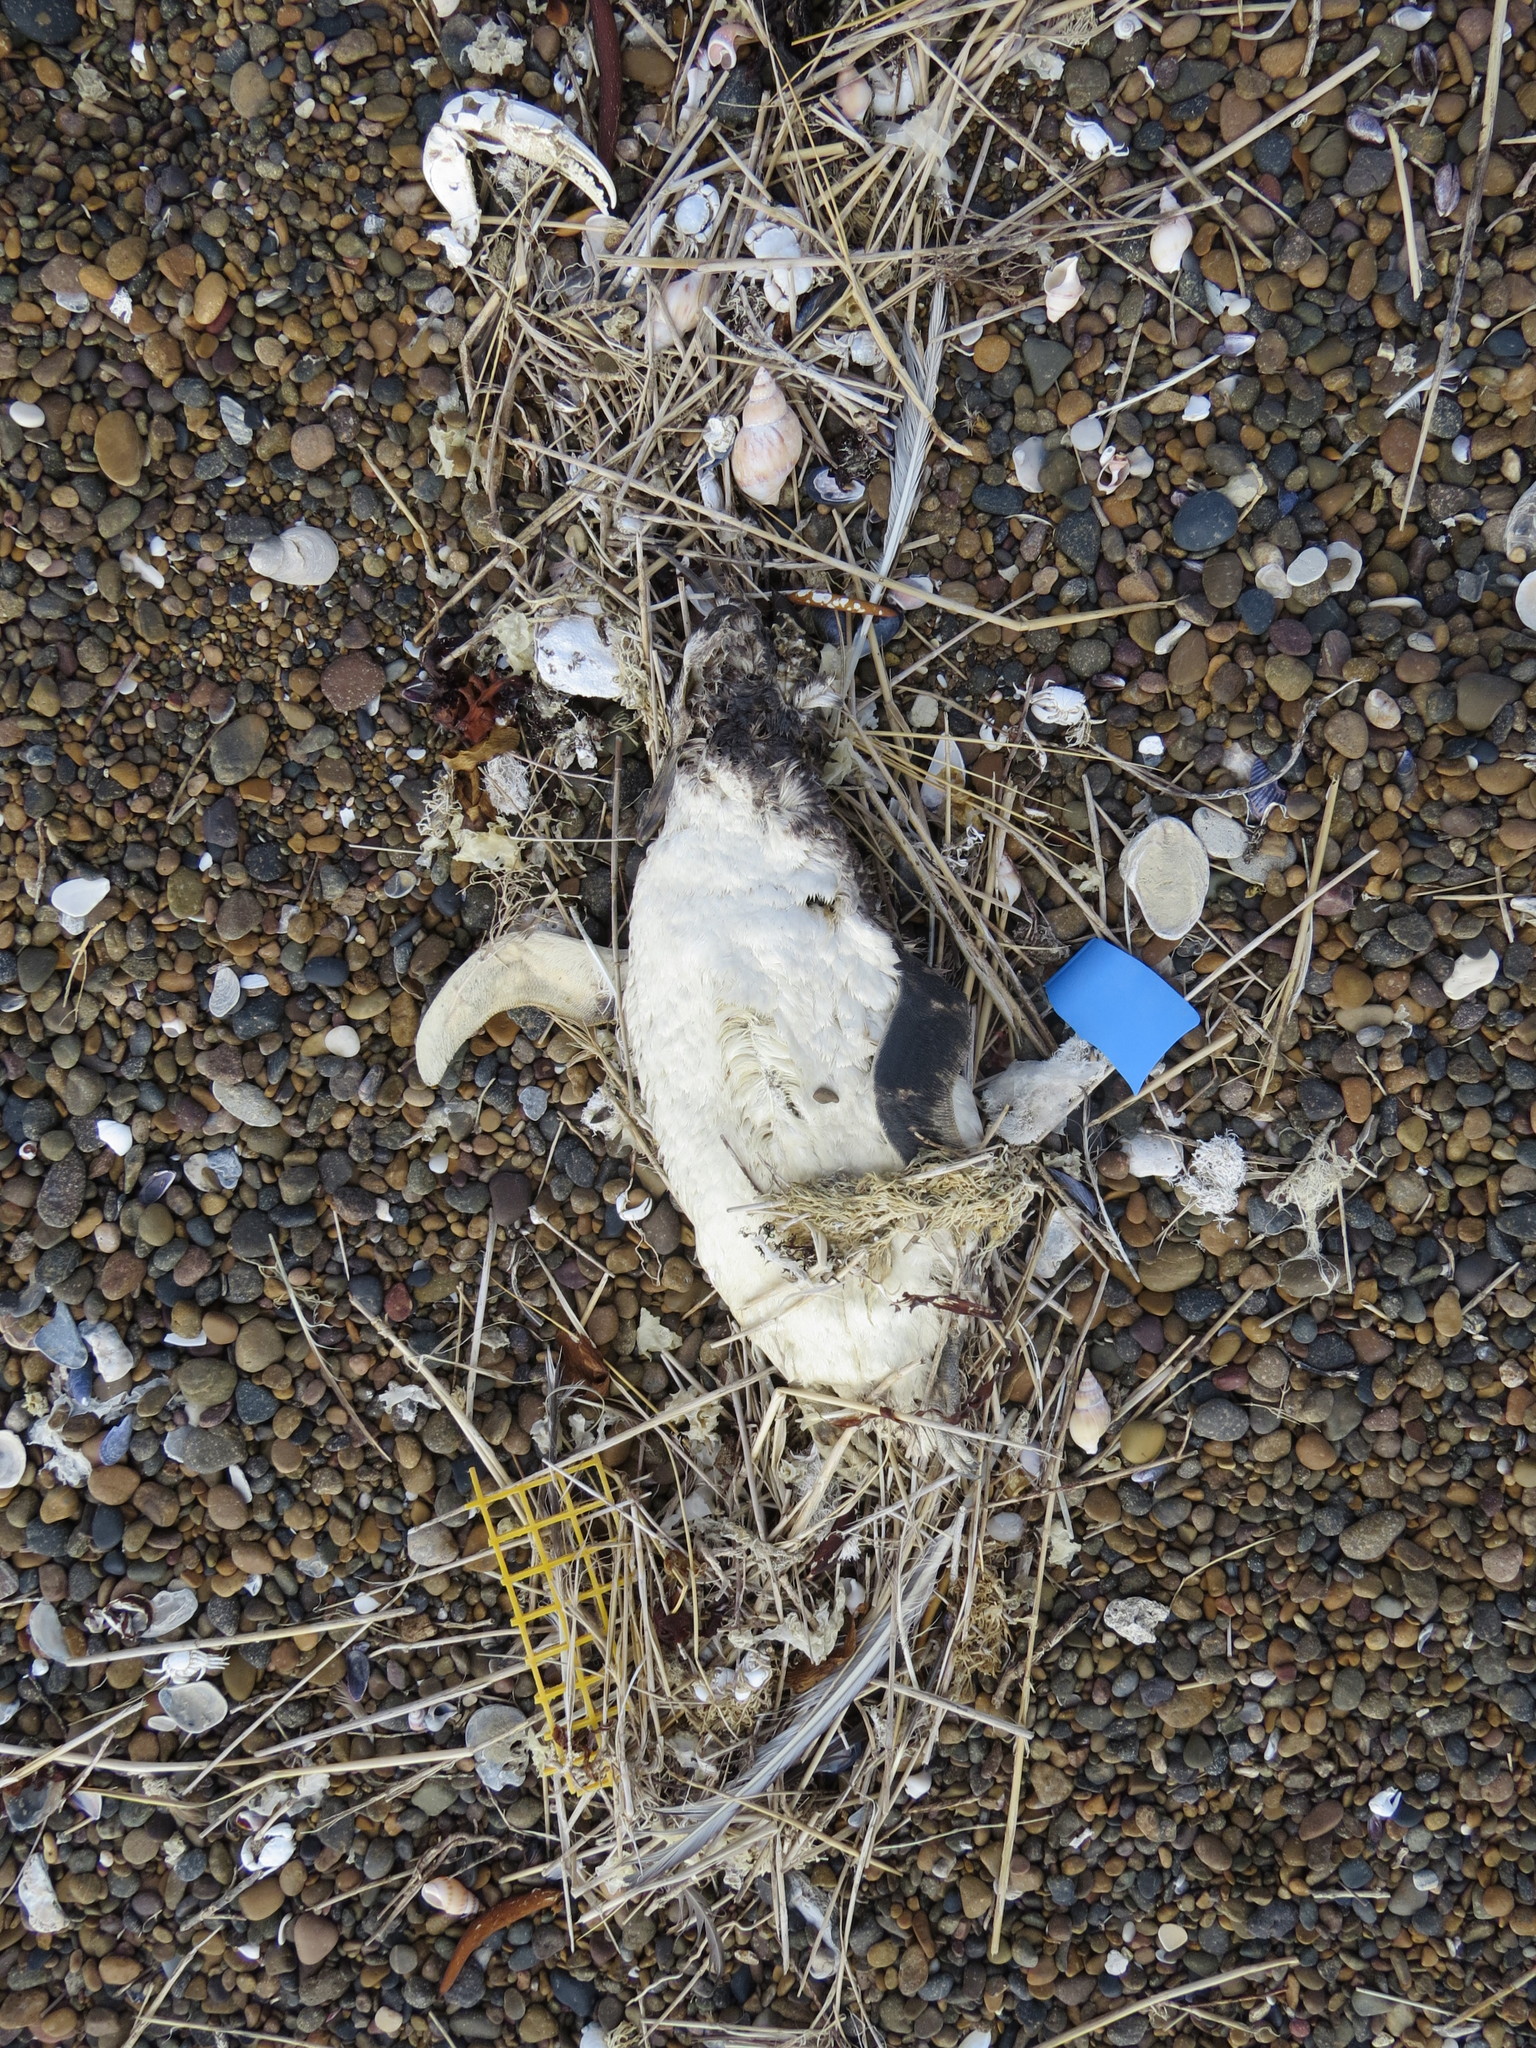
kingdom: Animalia
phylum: Chordata
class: Aves
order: Sphenisciformes
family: Spheniscidae
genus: Spheniscus
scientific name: Spheniscus magellanicus
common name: Magellanic penguin
